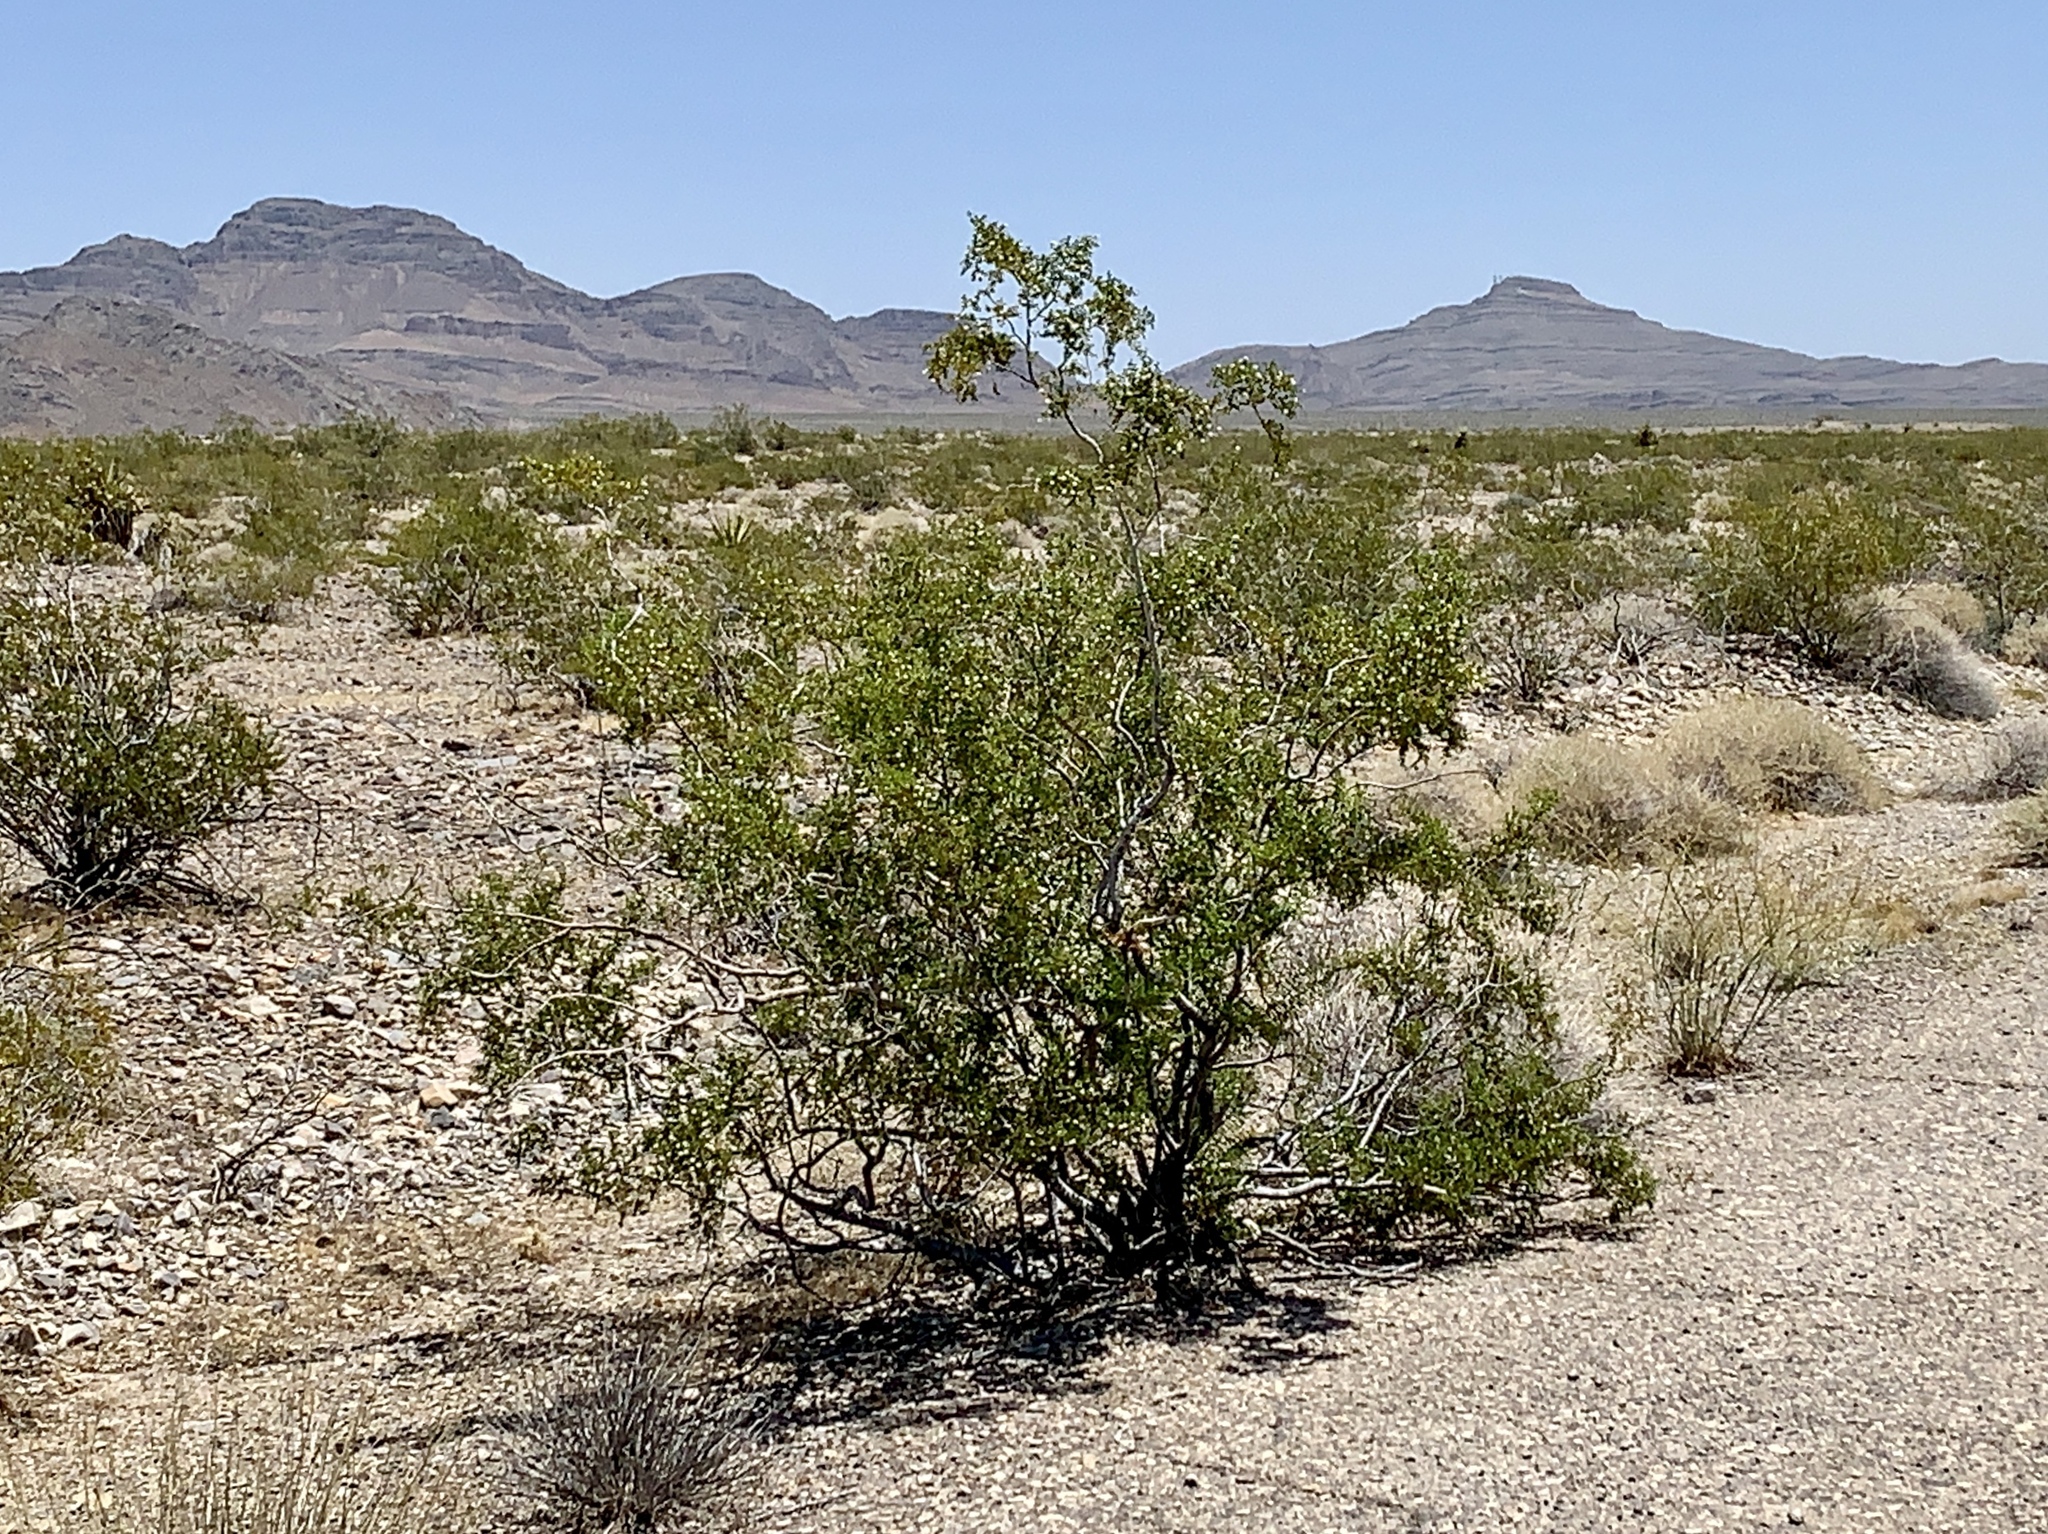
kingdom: Plantae
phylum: Tracheophyta
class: Magnoliopsida
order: Zygophyllales
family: Zygophyllaceae
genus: Larrea
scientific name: Larrea tridentata
